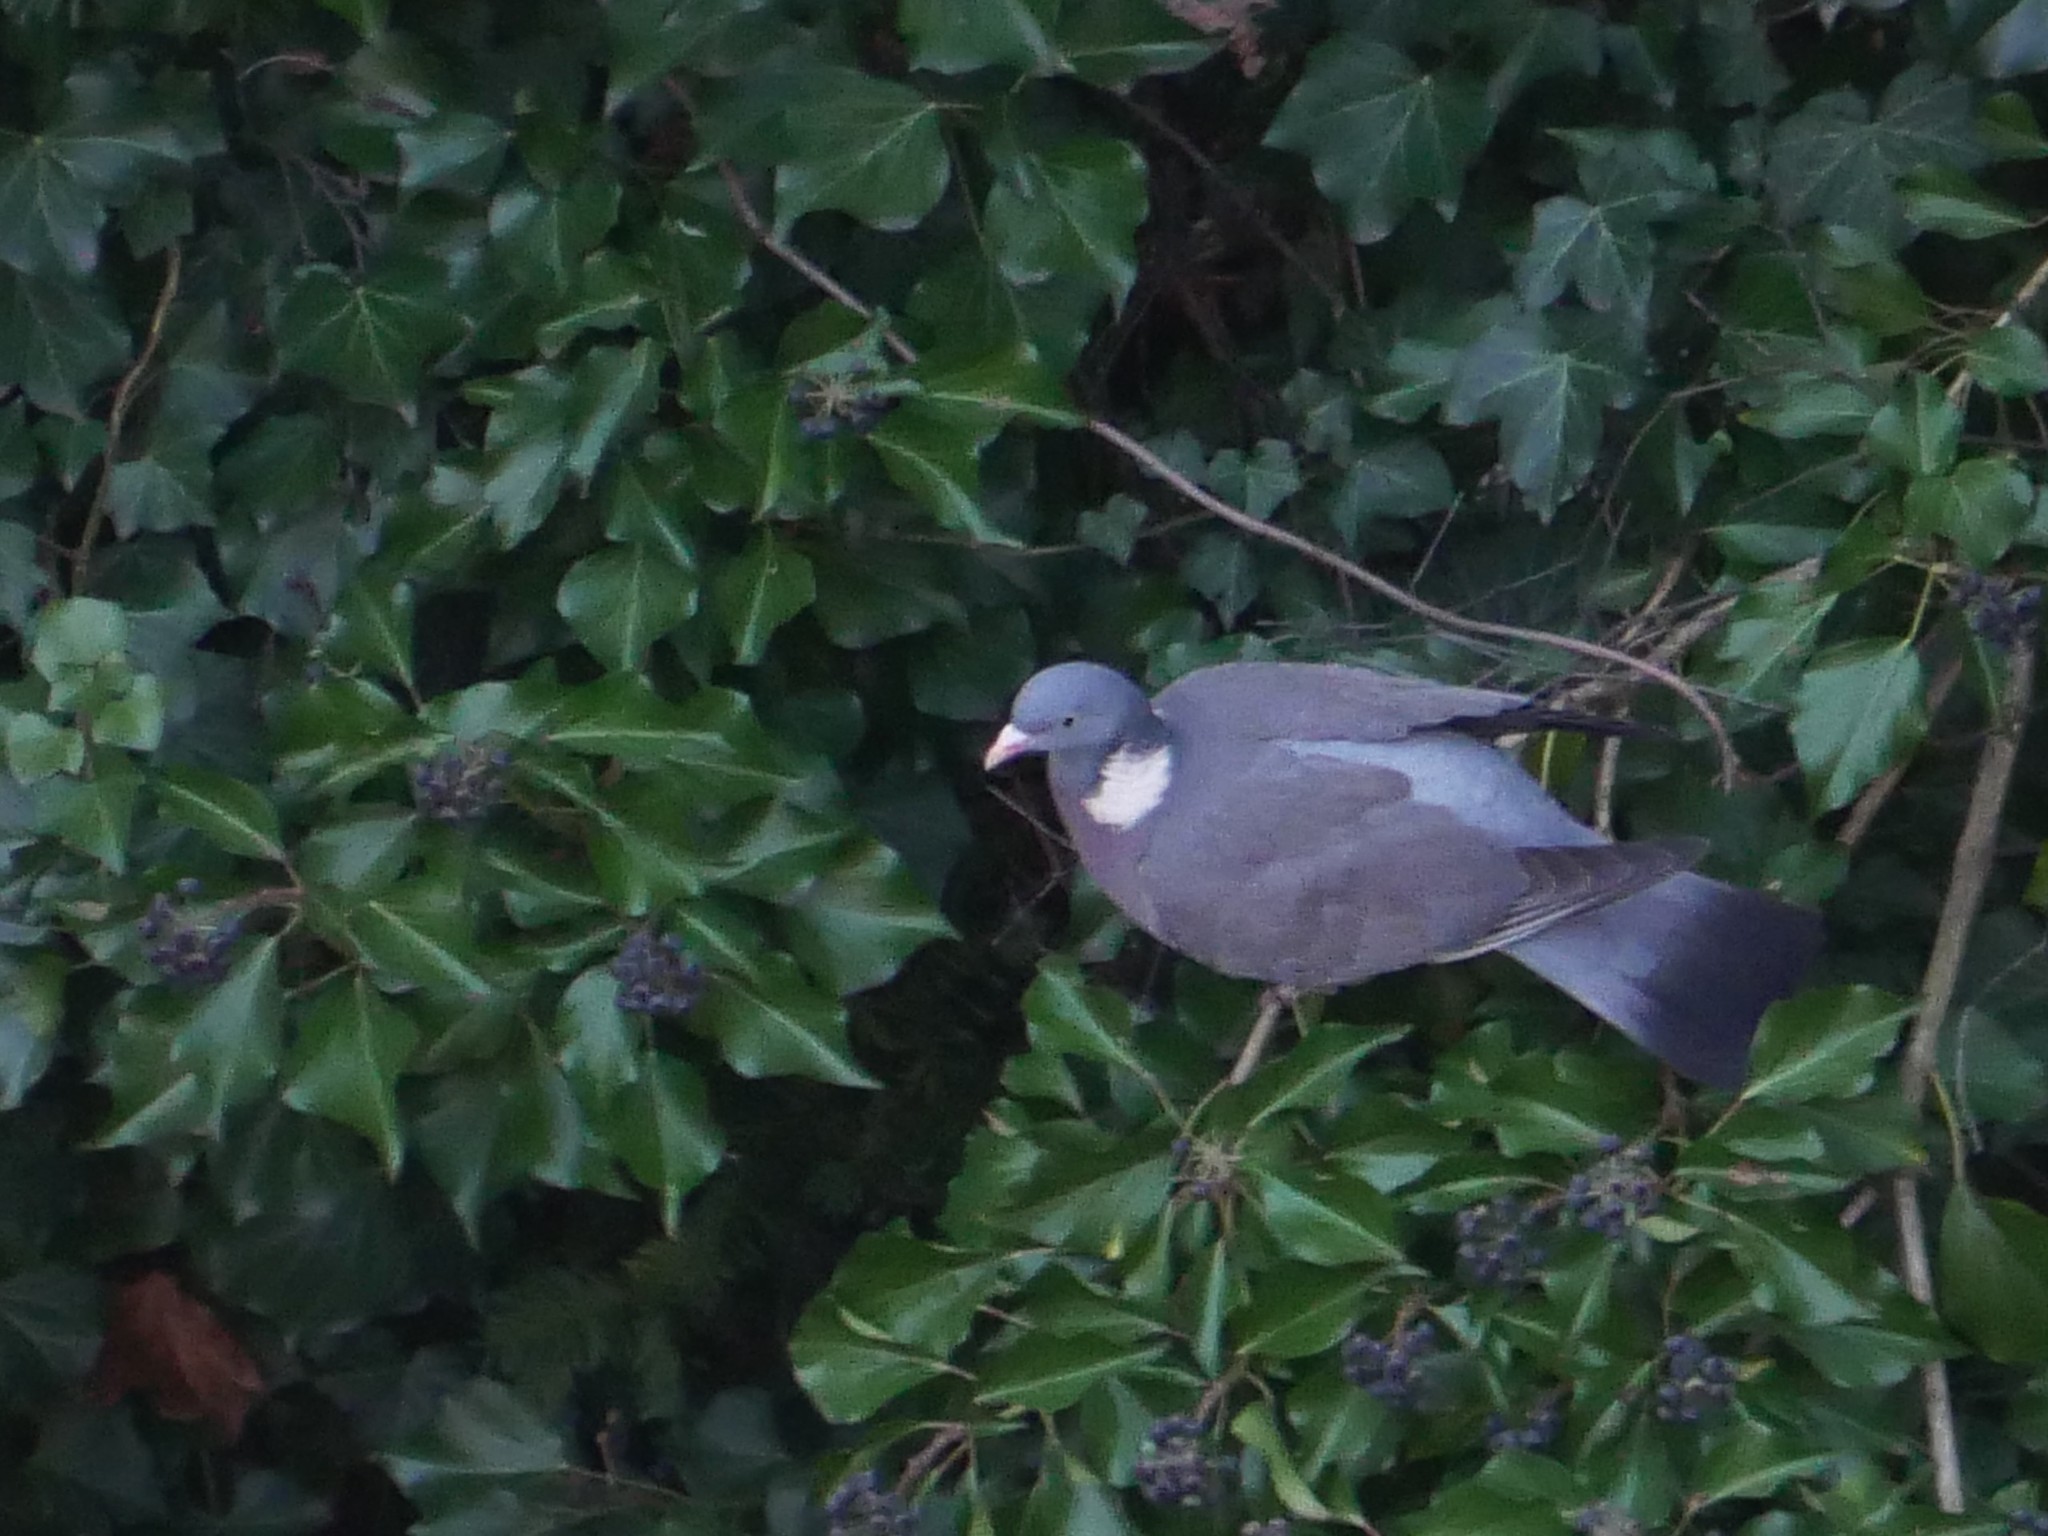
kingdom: Animalia
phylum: Chordata
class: Aves
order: Columbiformes
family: Columbidae
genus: Columba
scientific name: Columba palumbus
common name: Common wood pigeon
